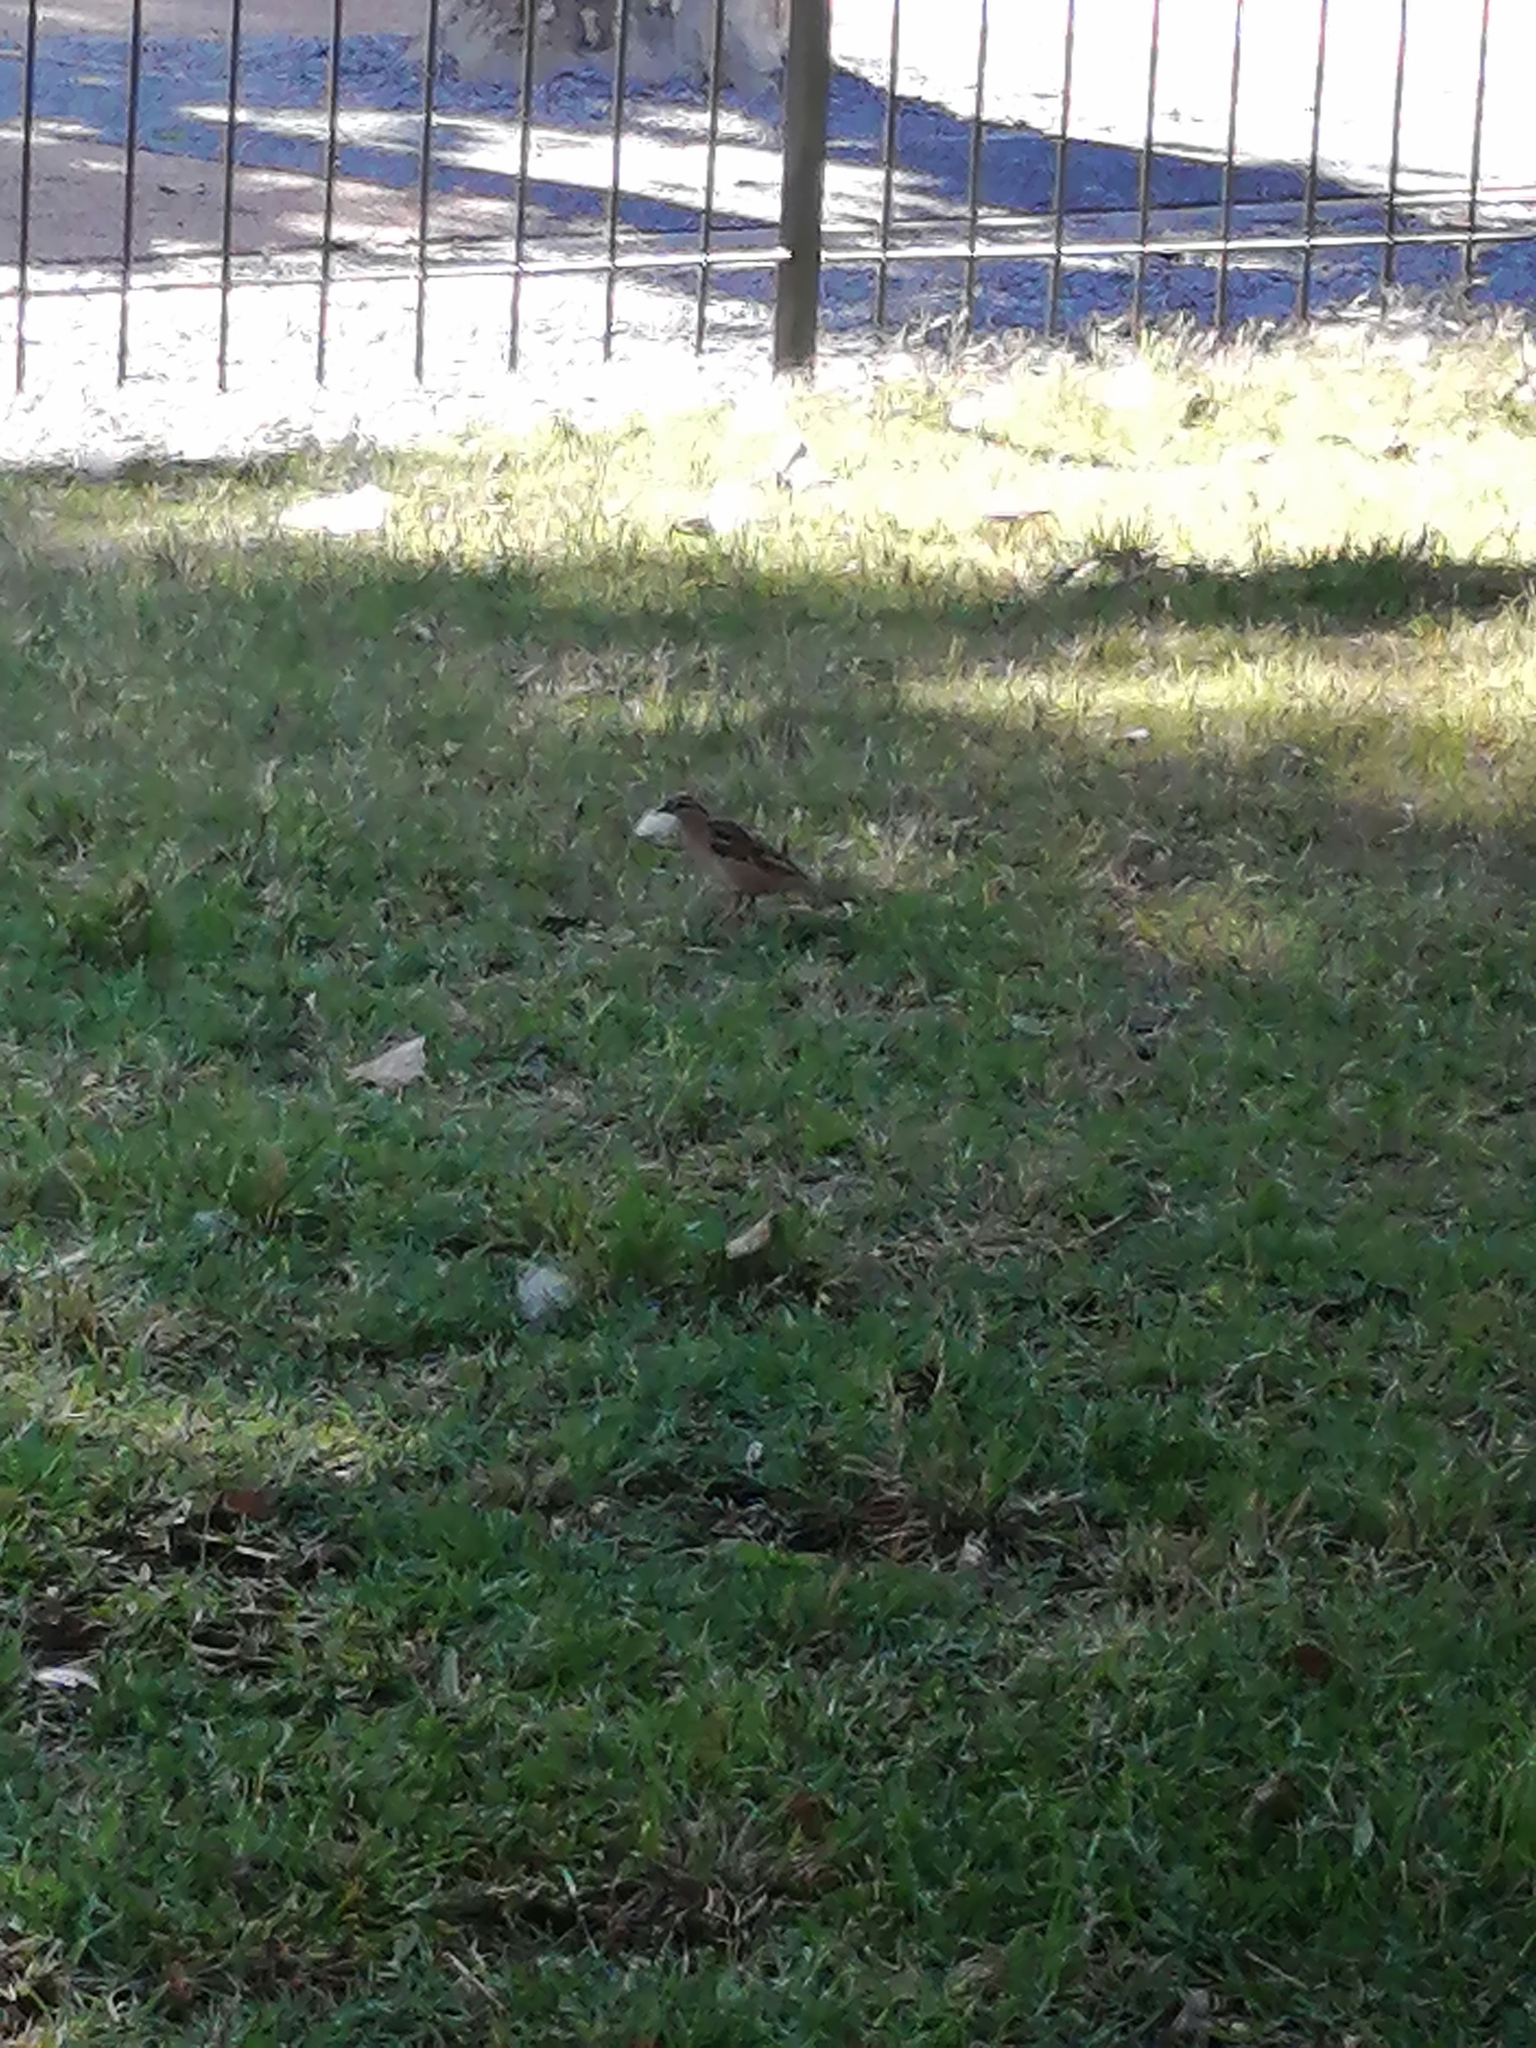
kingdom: Animalia
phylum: Chordata
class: Aves
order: Passeriformes
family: Passeridae
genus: Passer
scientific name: Passer domesticus
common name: House sparrow
